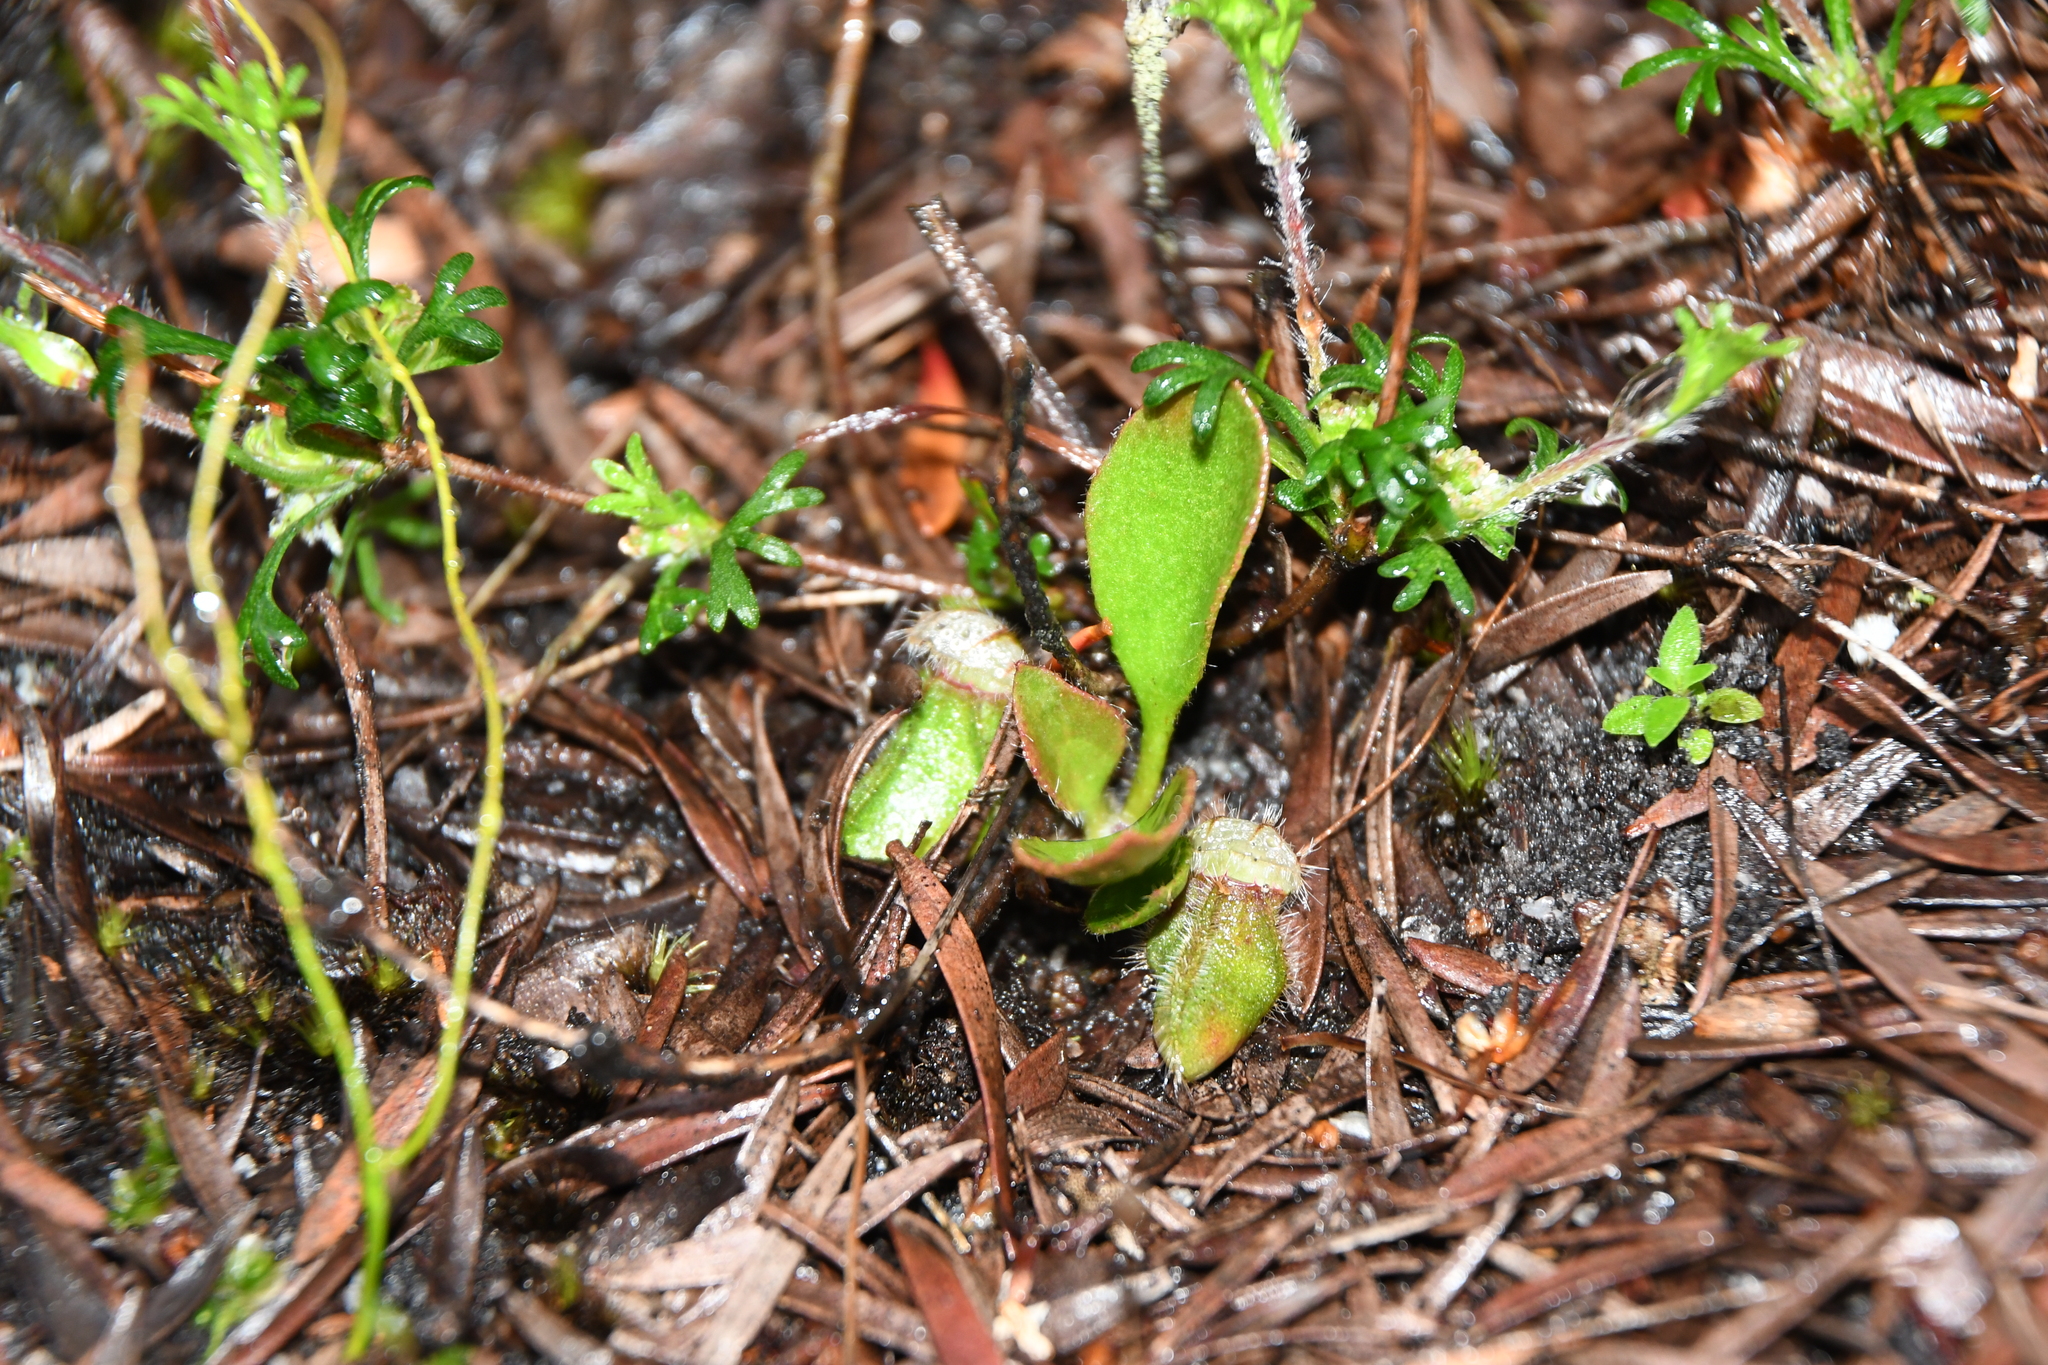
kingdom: Plantae
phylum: Tracheophyta
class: Magnoliopsida
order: Oxalidales
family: Cephalotaceae
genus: Cephalotus
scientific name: Cephalotus follicularis
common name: Australian pitcher plant
